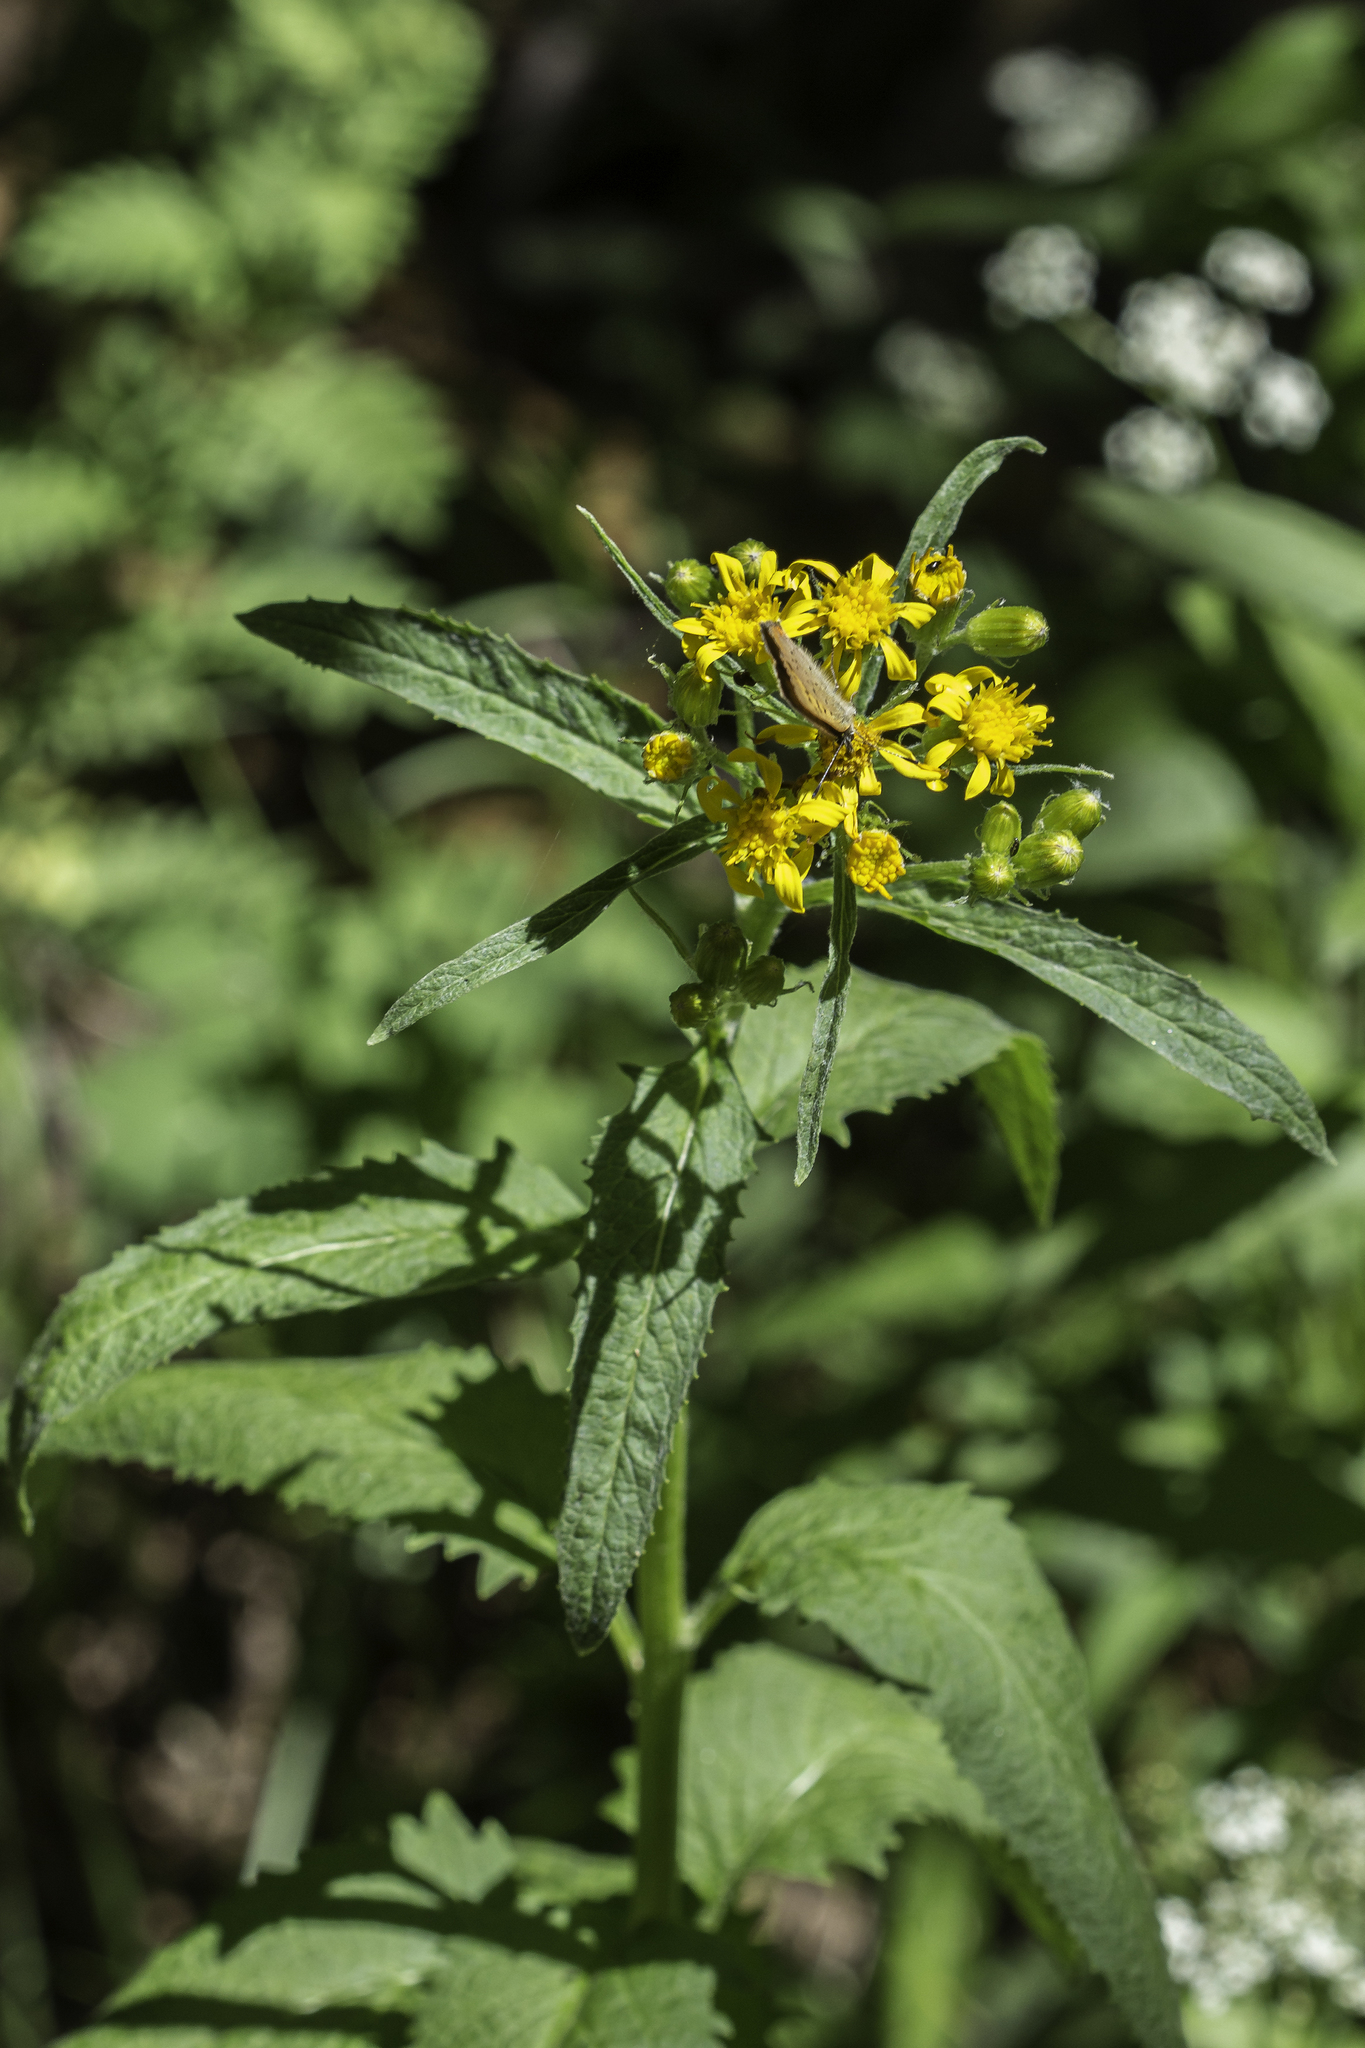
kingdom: Plantae
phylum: Tracheophyta
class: Magnoliopsida
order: Asterales
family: Asteraceae
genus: Senecio
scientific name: Senecio triangularis
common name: Arrowleaf butterweed
